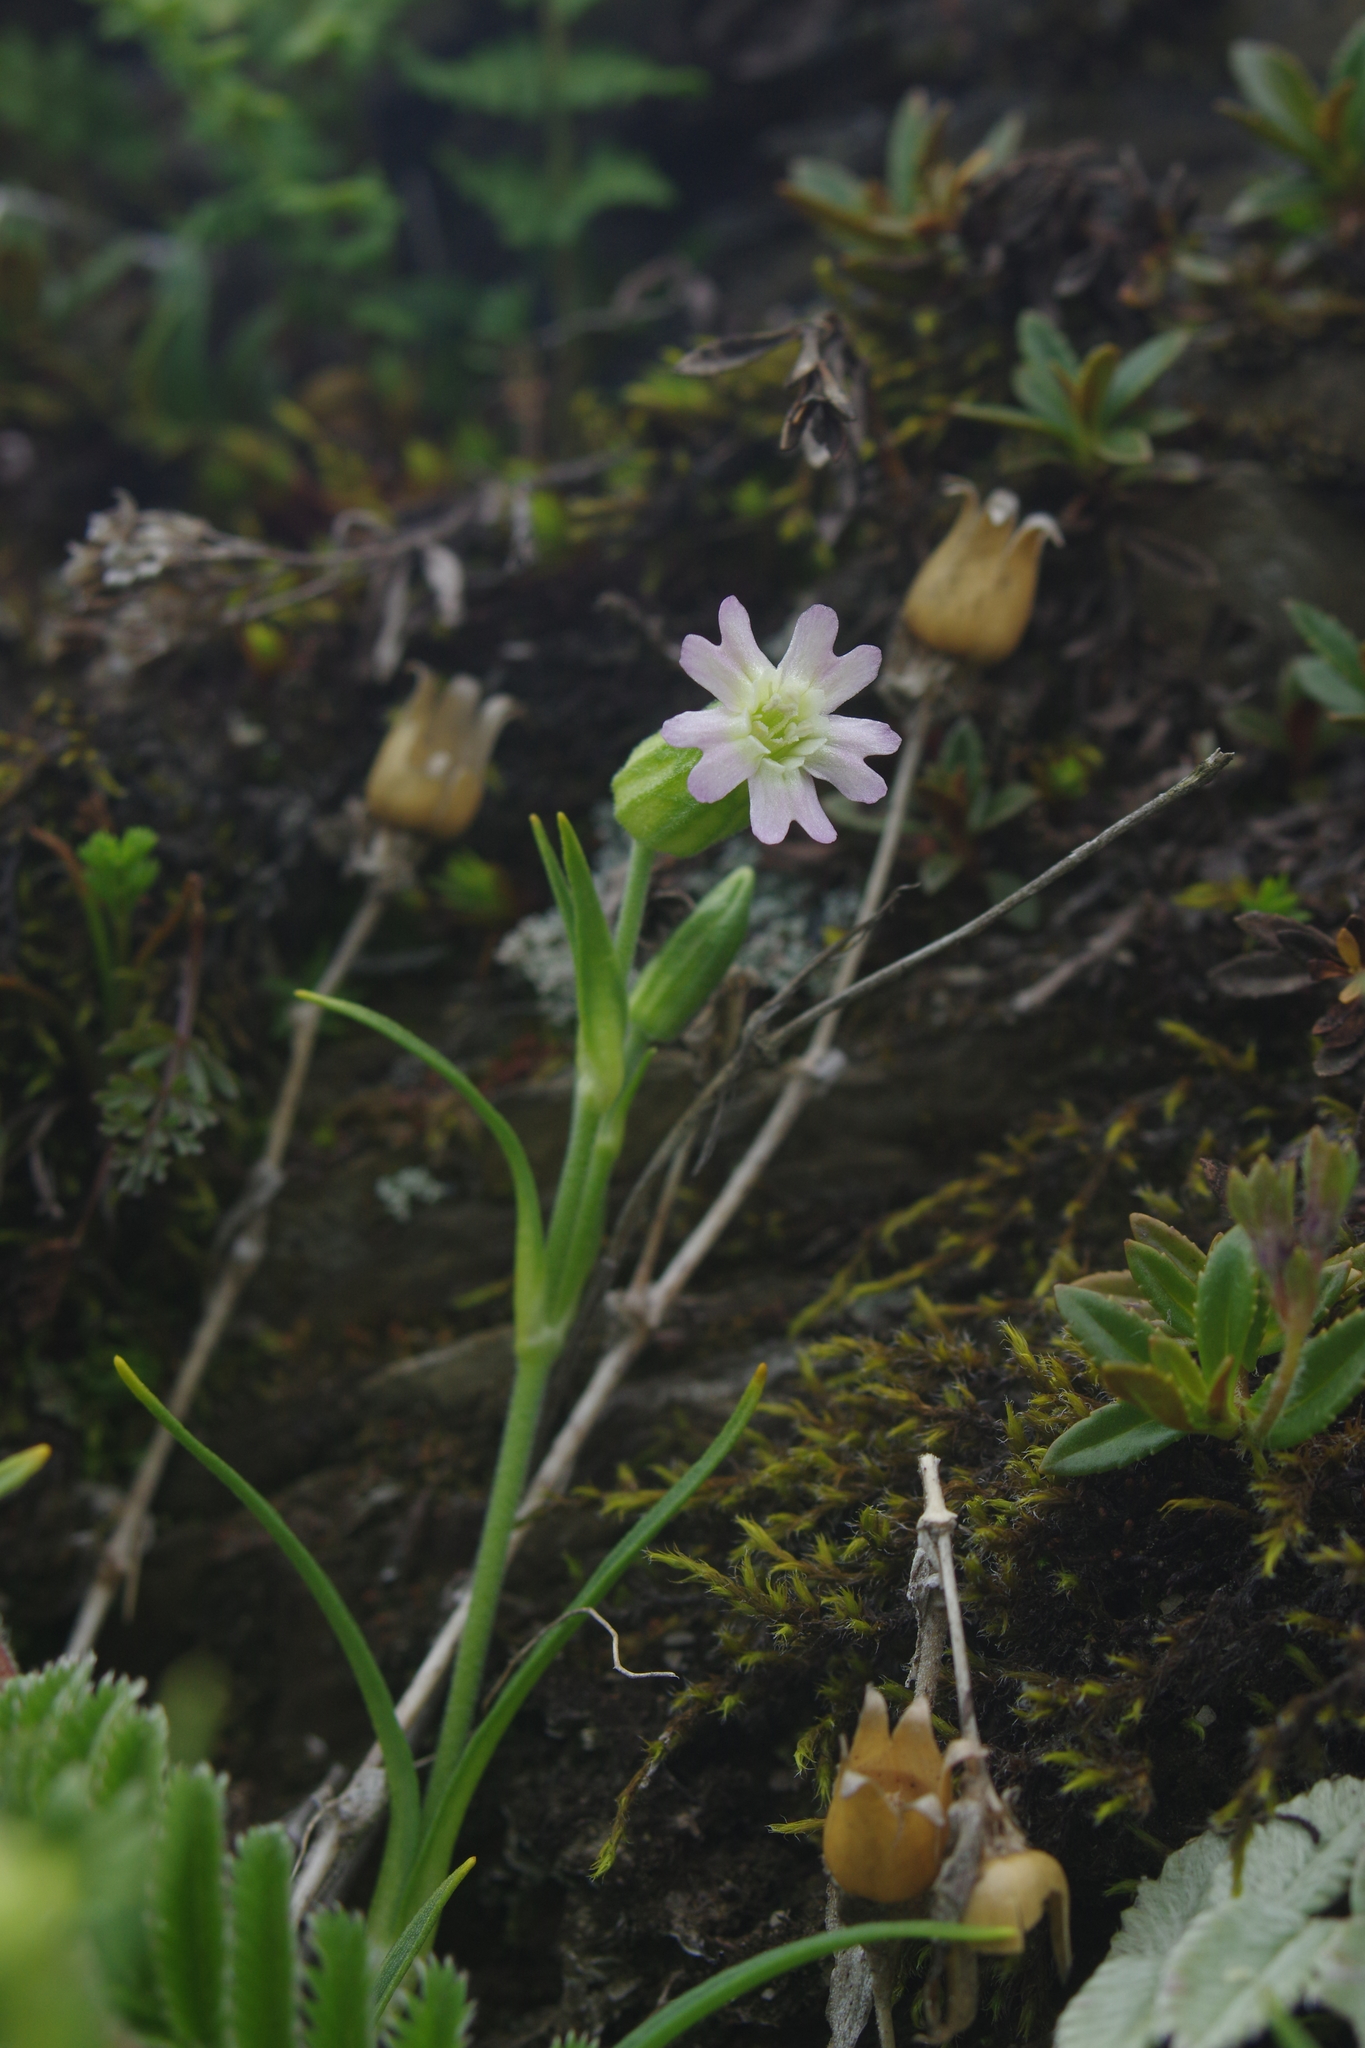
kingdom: Plantae
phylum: Tracheophyta
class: Magnoliopsida
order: Caryophyllales
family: Caryophyllaceae
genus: Silene
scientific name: Silene ohwii
